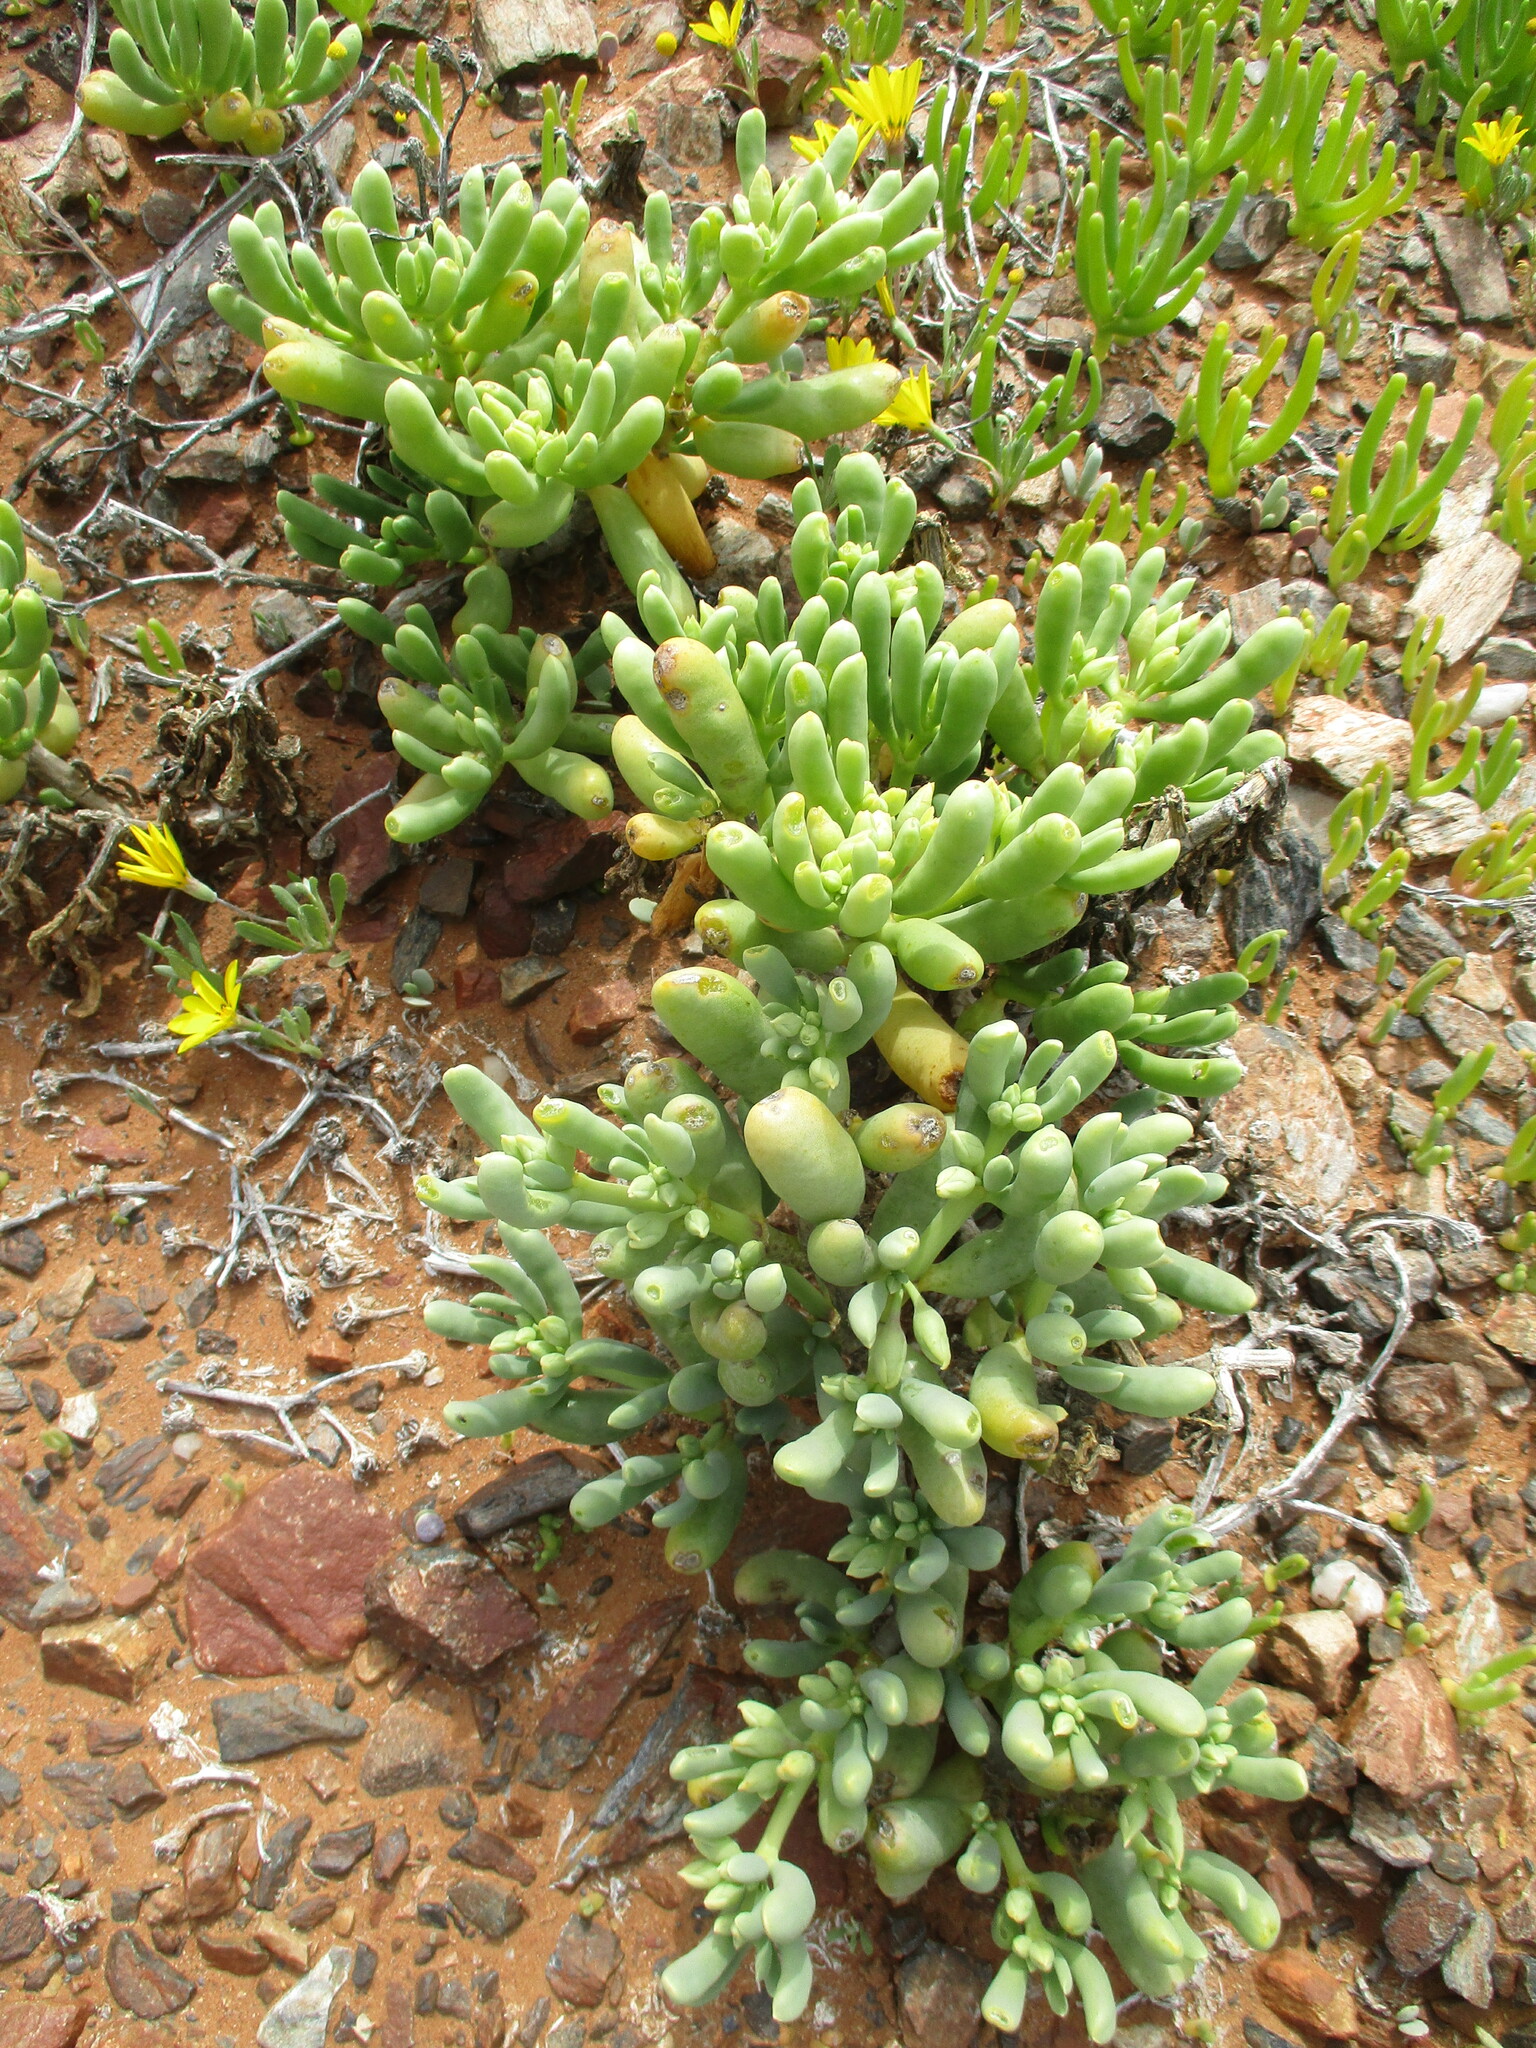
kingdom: Plantae
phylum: Tracheophyta
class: Magnoliopsida
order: Zygophyllales
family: Zygophyllaceae
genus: Augea
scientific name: Augea capensis
